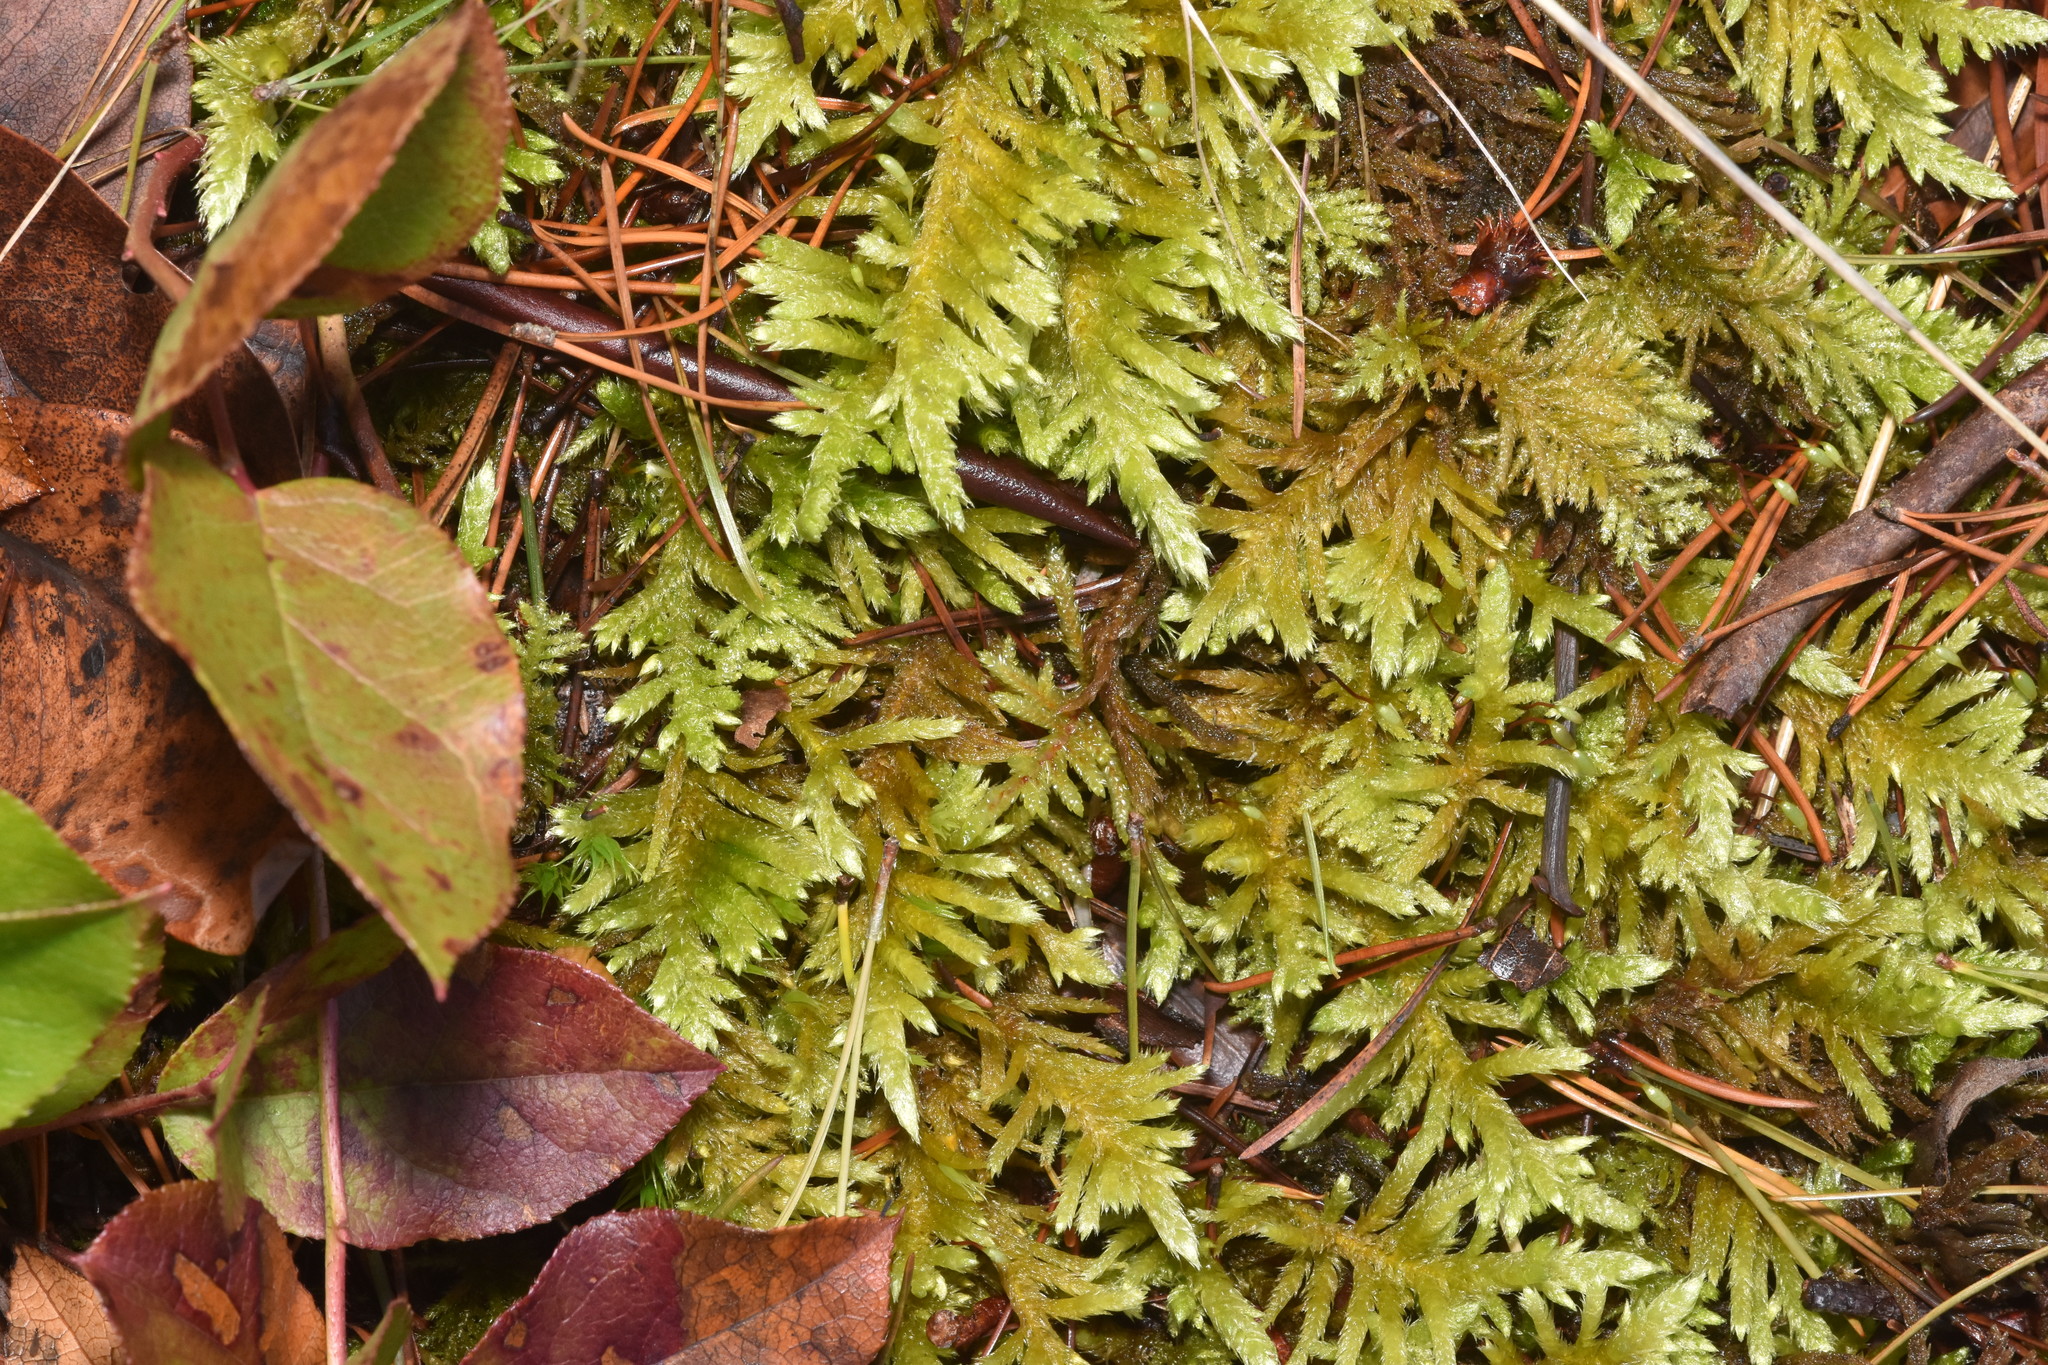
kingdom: Plantae
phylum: Bryophyta
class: Bryopsida
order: Hypnales
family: Brachytheciaceae
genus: Homalothecium
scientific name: Homalothecium megaptilum
